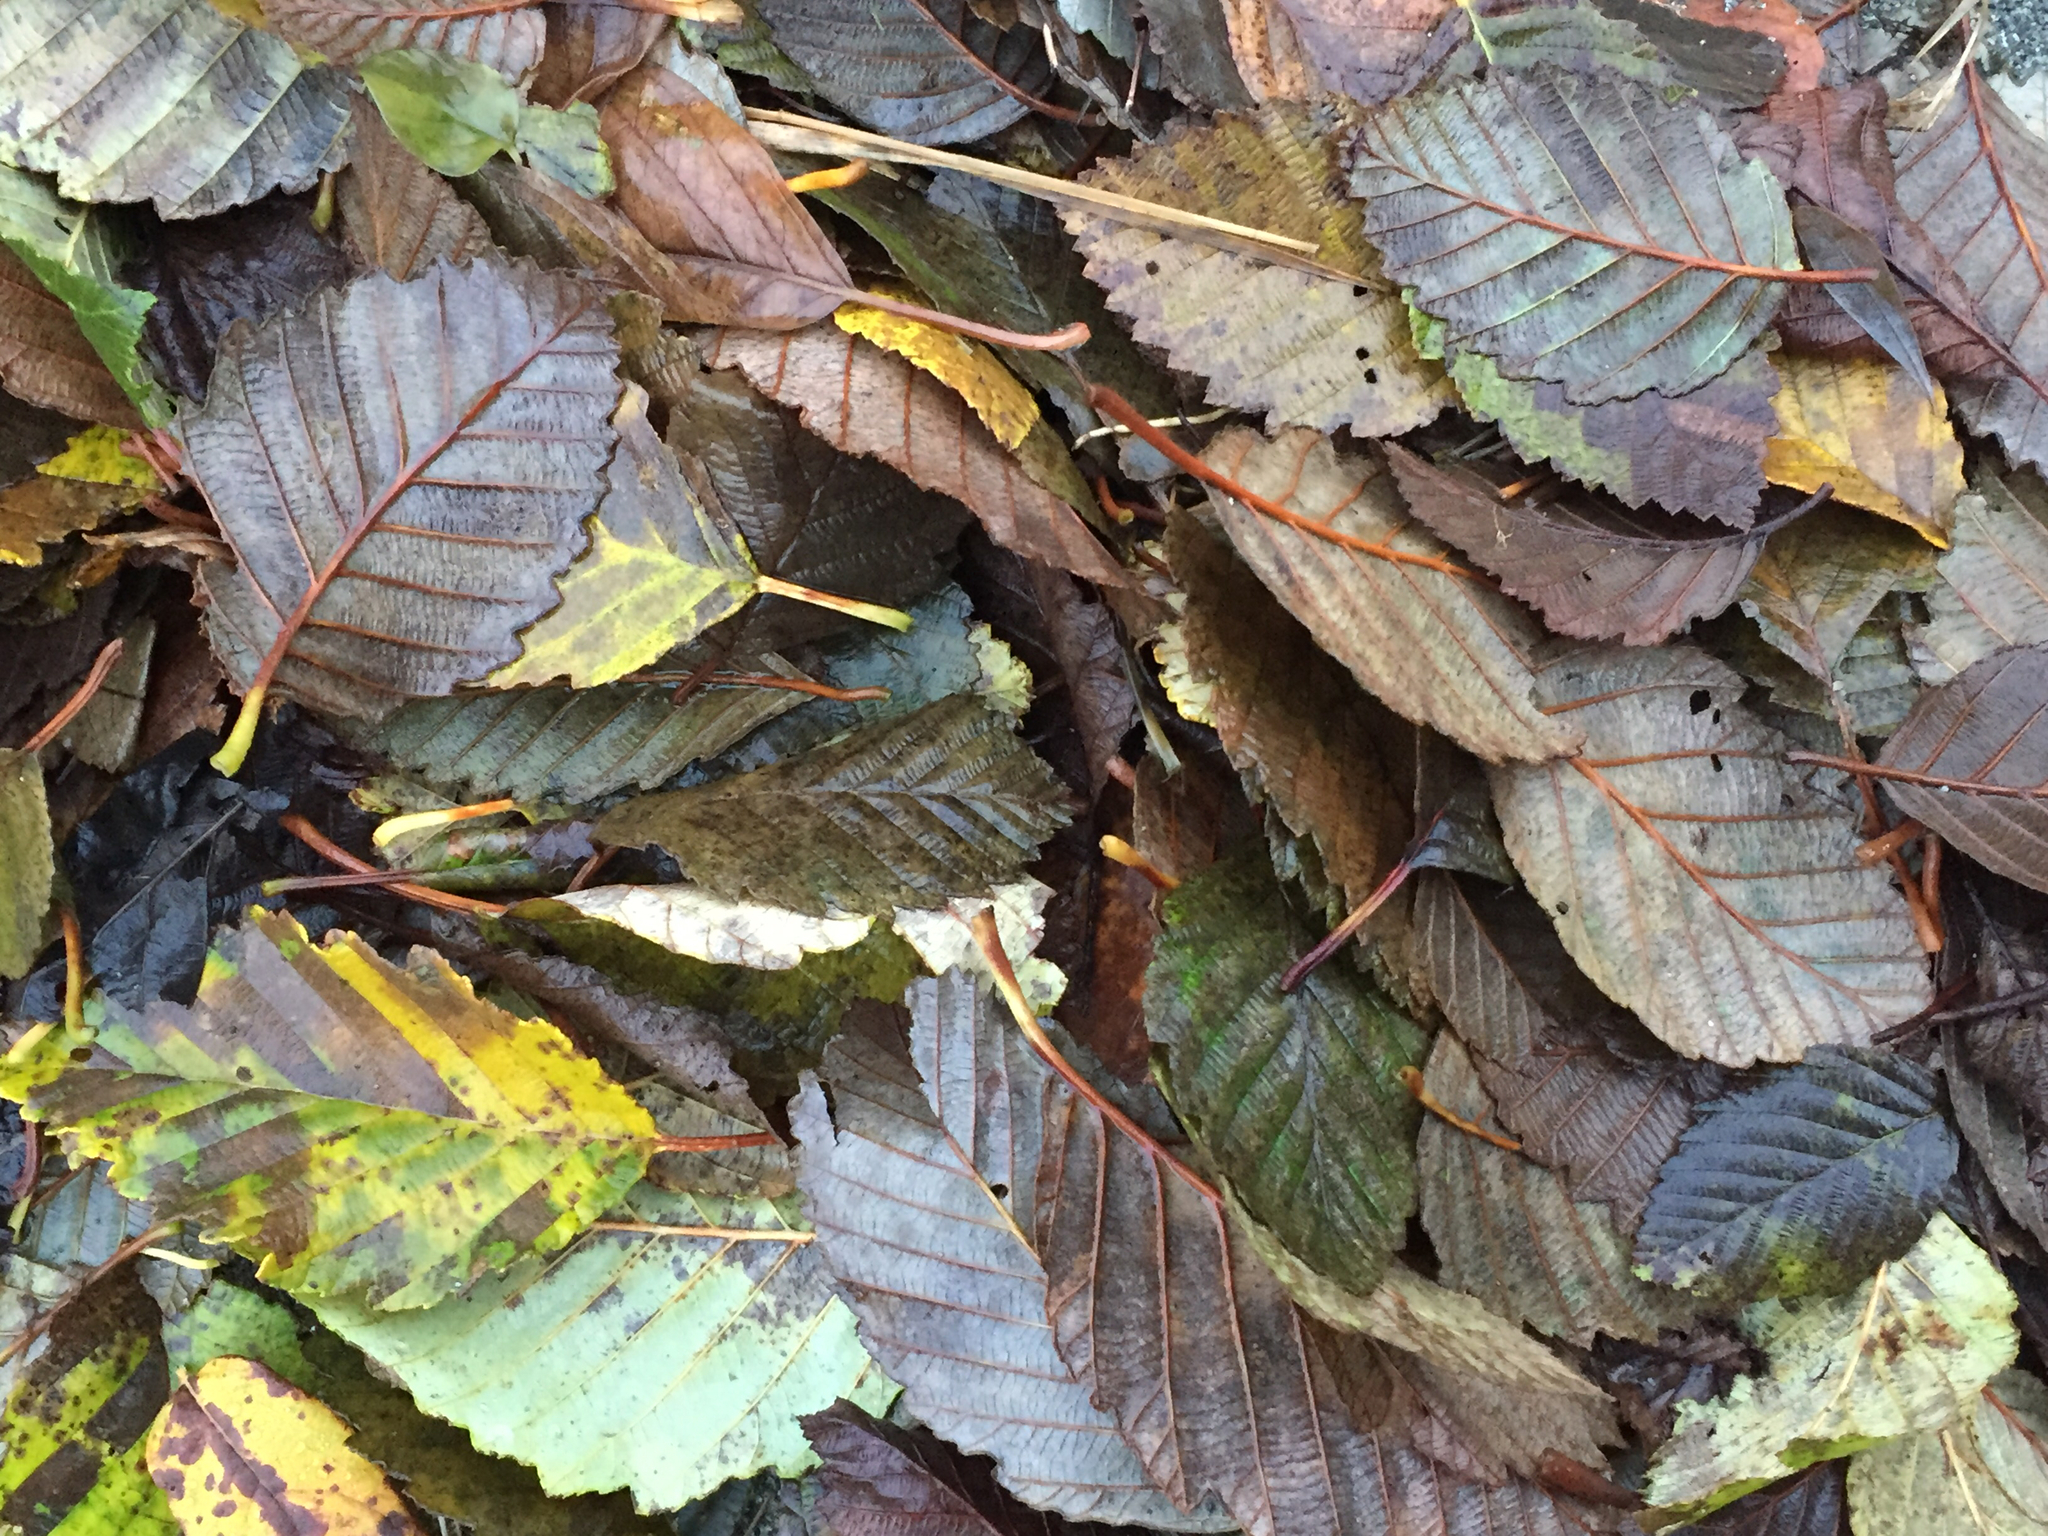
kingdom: Plantae
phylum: Tracheophyta
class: Magnoliopsida
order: Fagales
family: Betulaceae
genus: Alnus
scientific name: Alnus rubra
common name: Red alder
